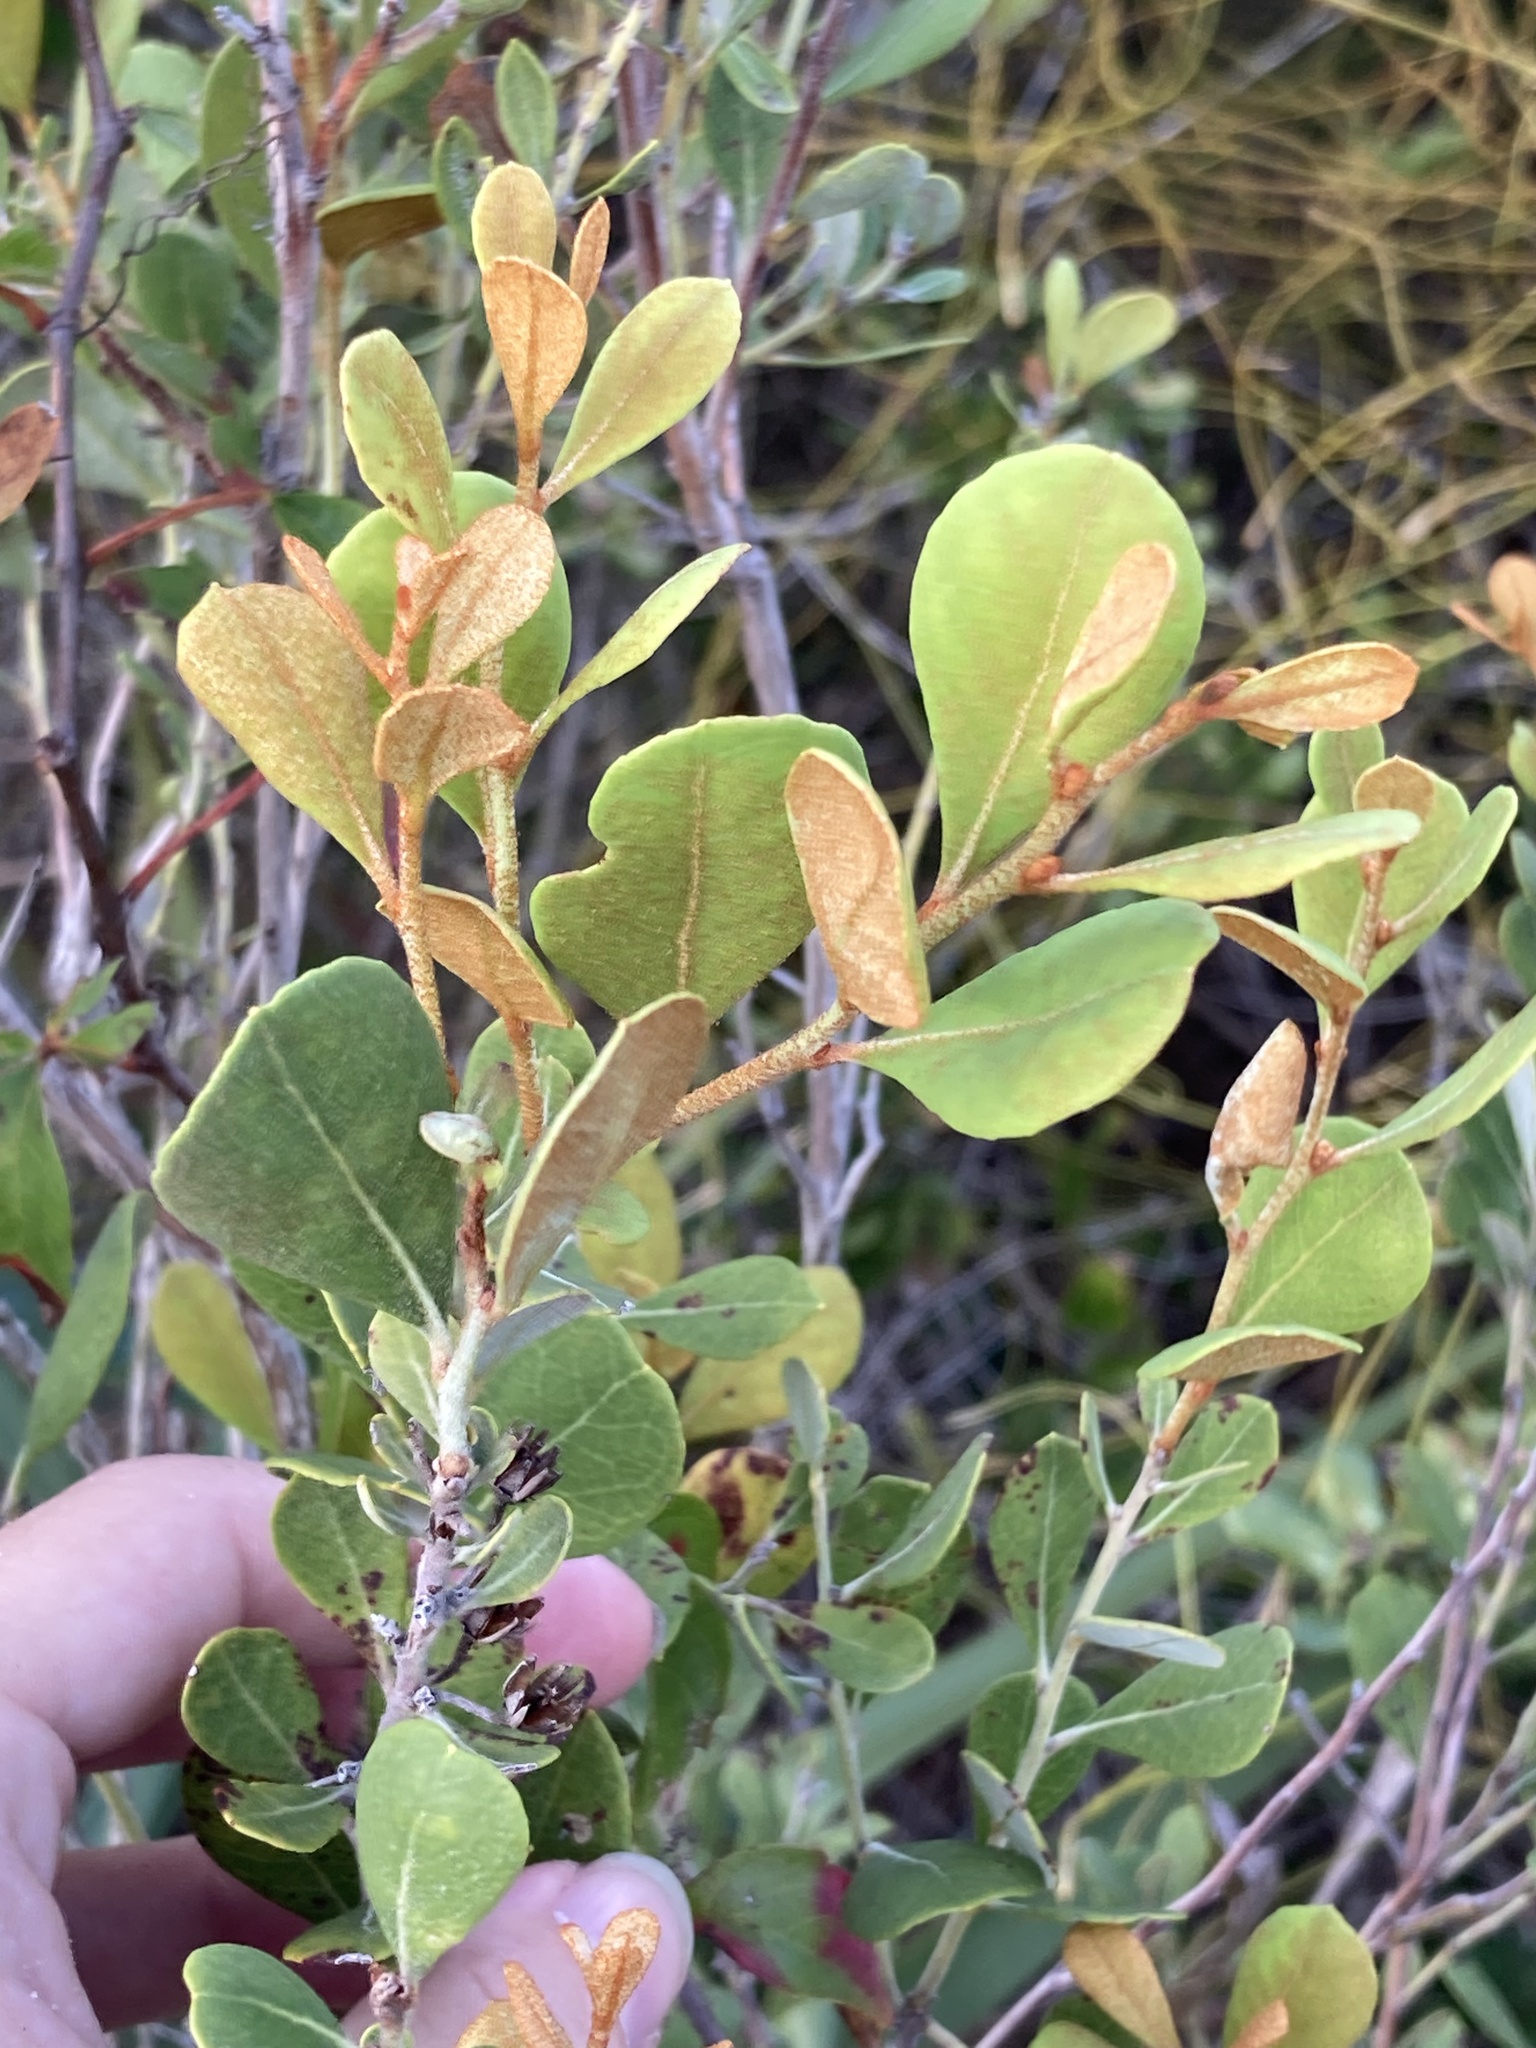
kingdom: Plantae
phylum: Tracheophyta
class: Magnoliopsida
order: Ericales
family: Ericaceae
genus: Lyonia
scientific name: Lyonia fruticosa
